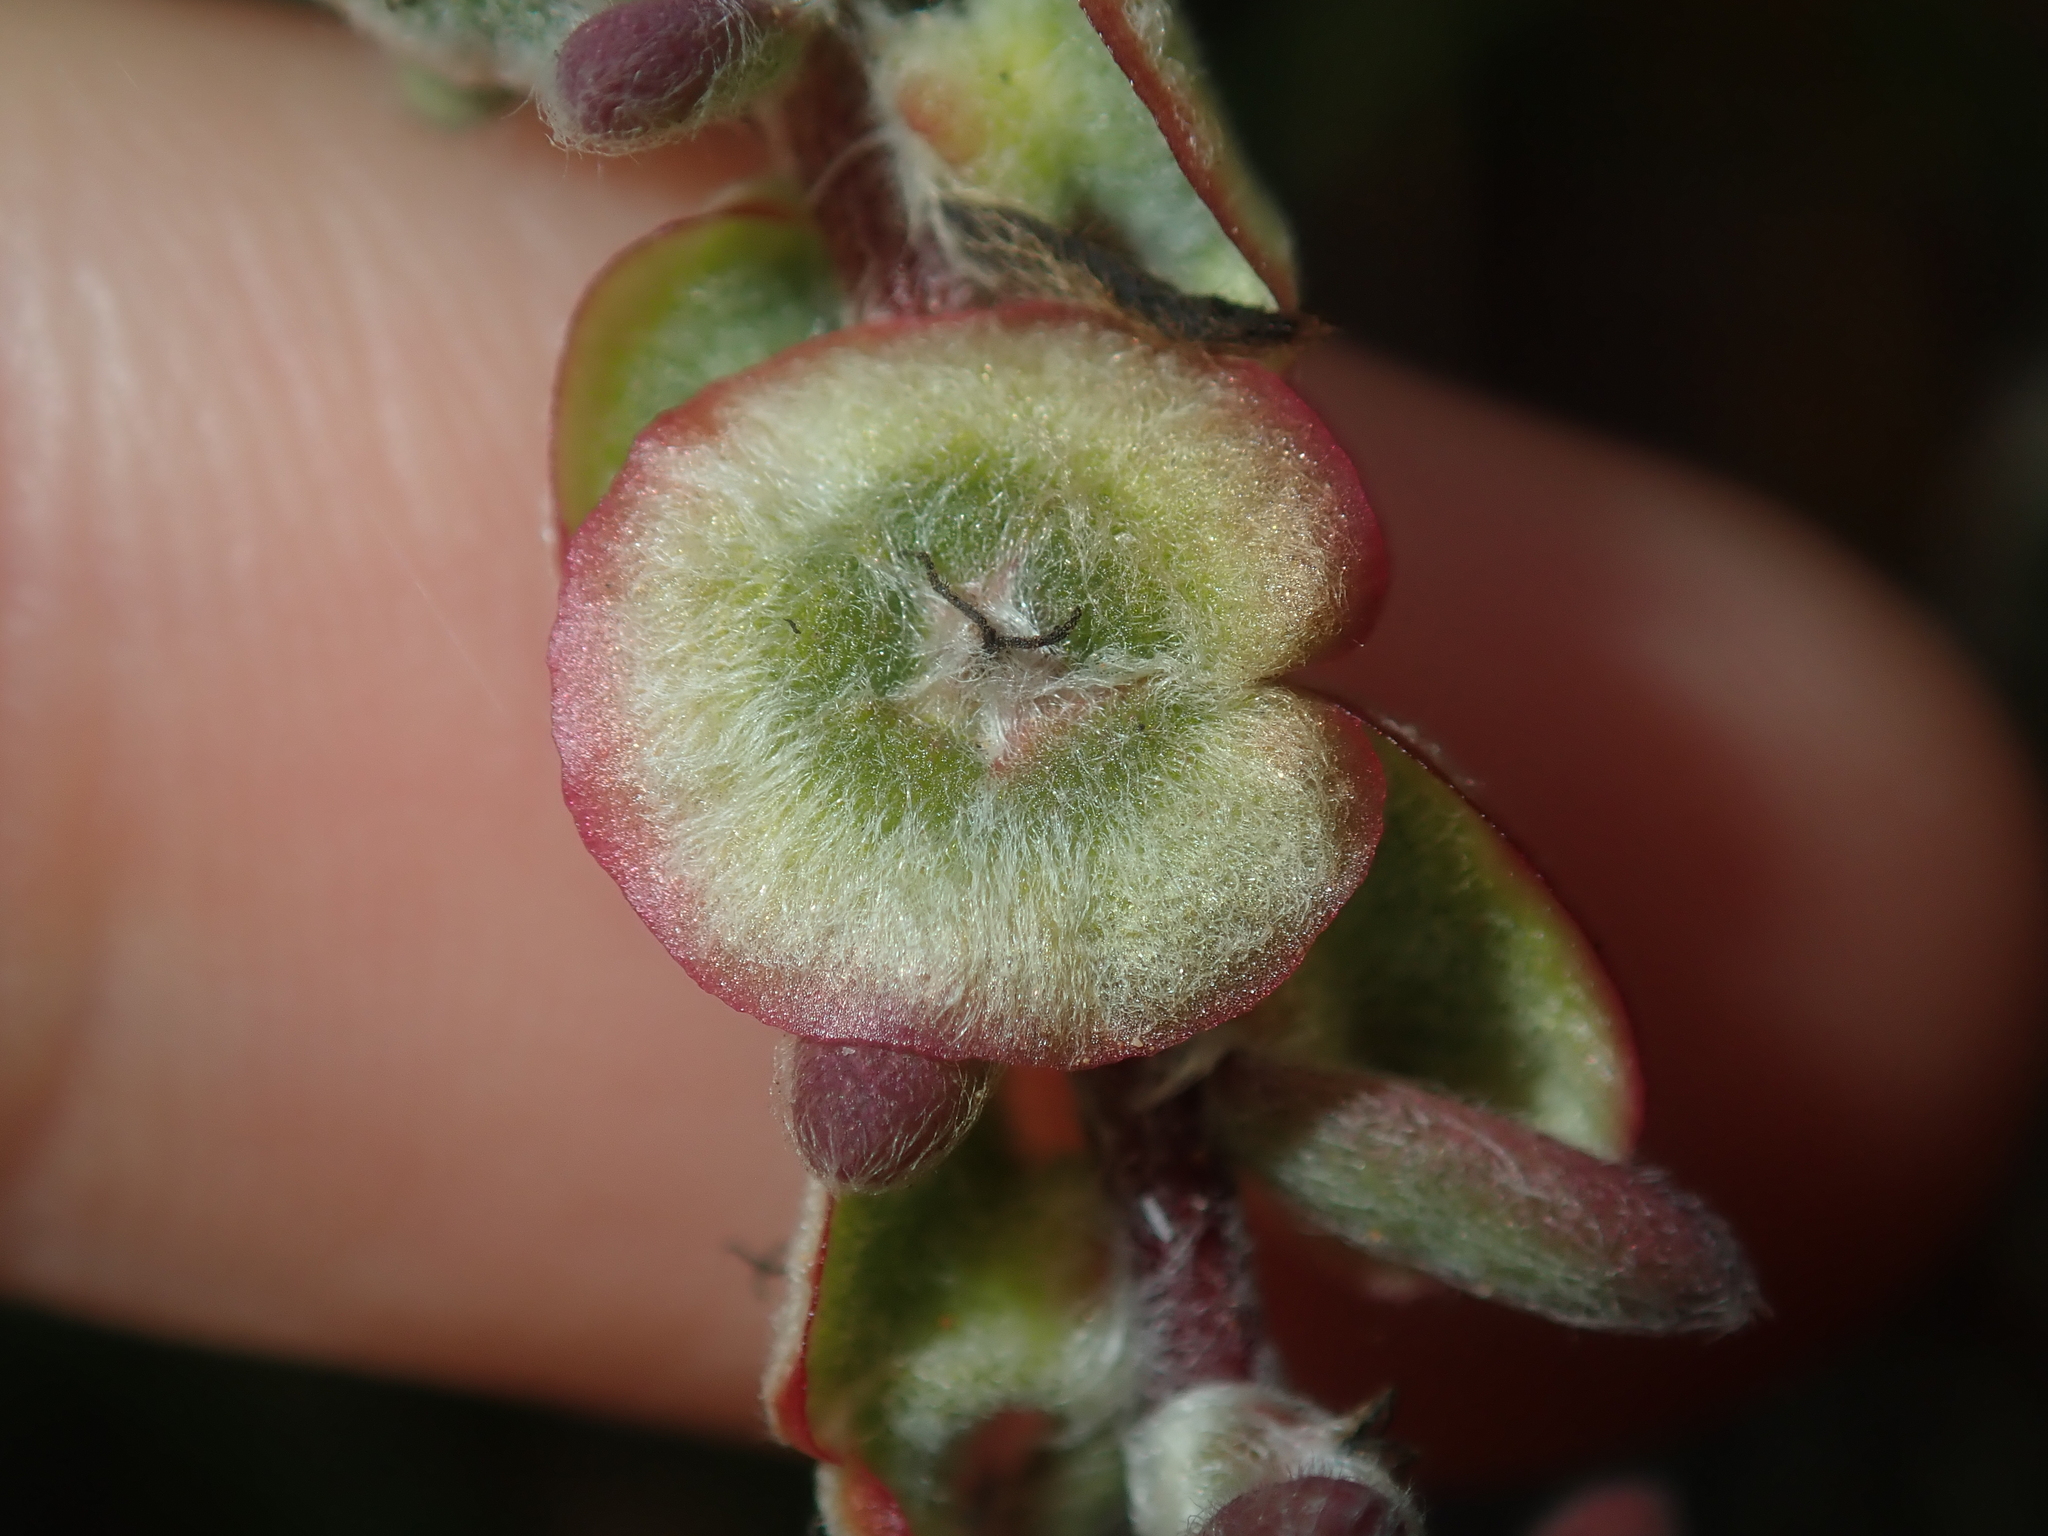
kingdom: Plantae
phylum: Tracheophyta
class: Magnoliopsida
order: Caryophyllales
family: Amaranthaceae
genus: Maireana
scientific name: Maireana trichoptera
